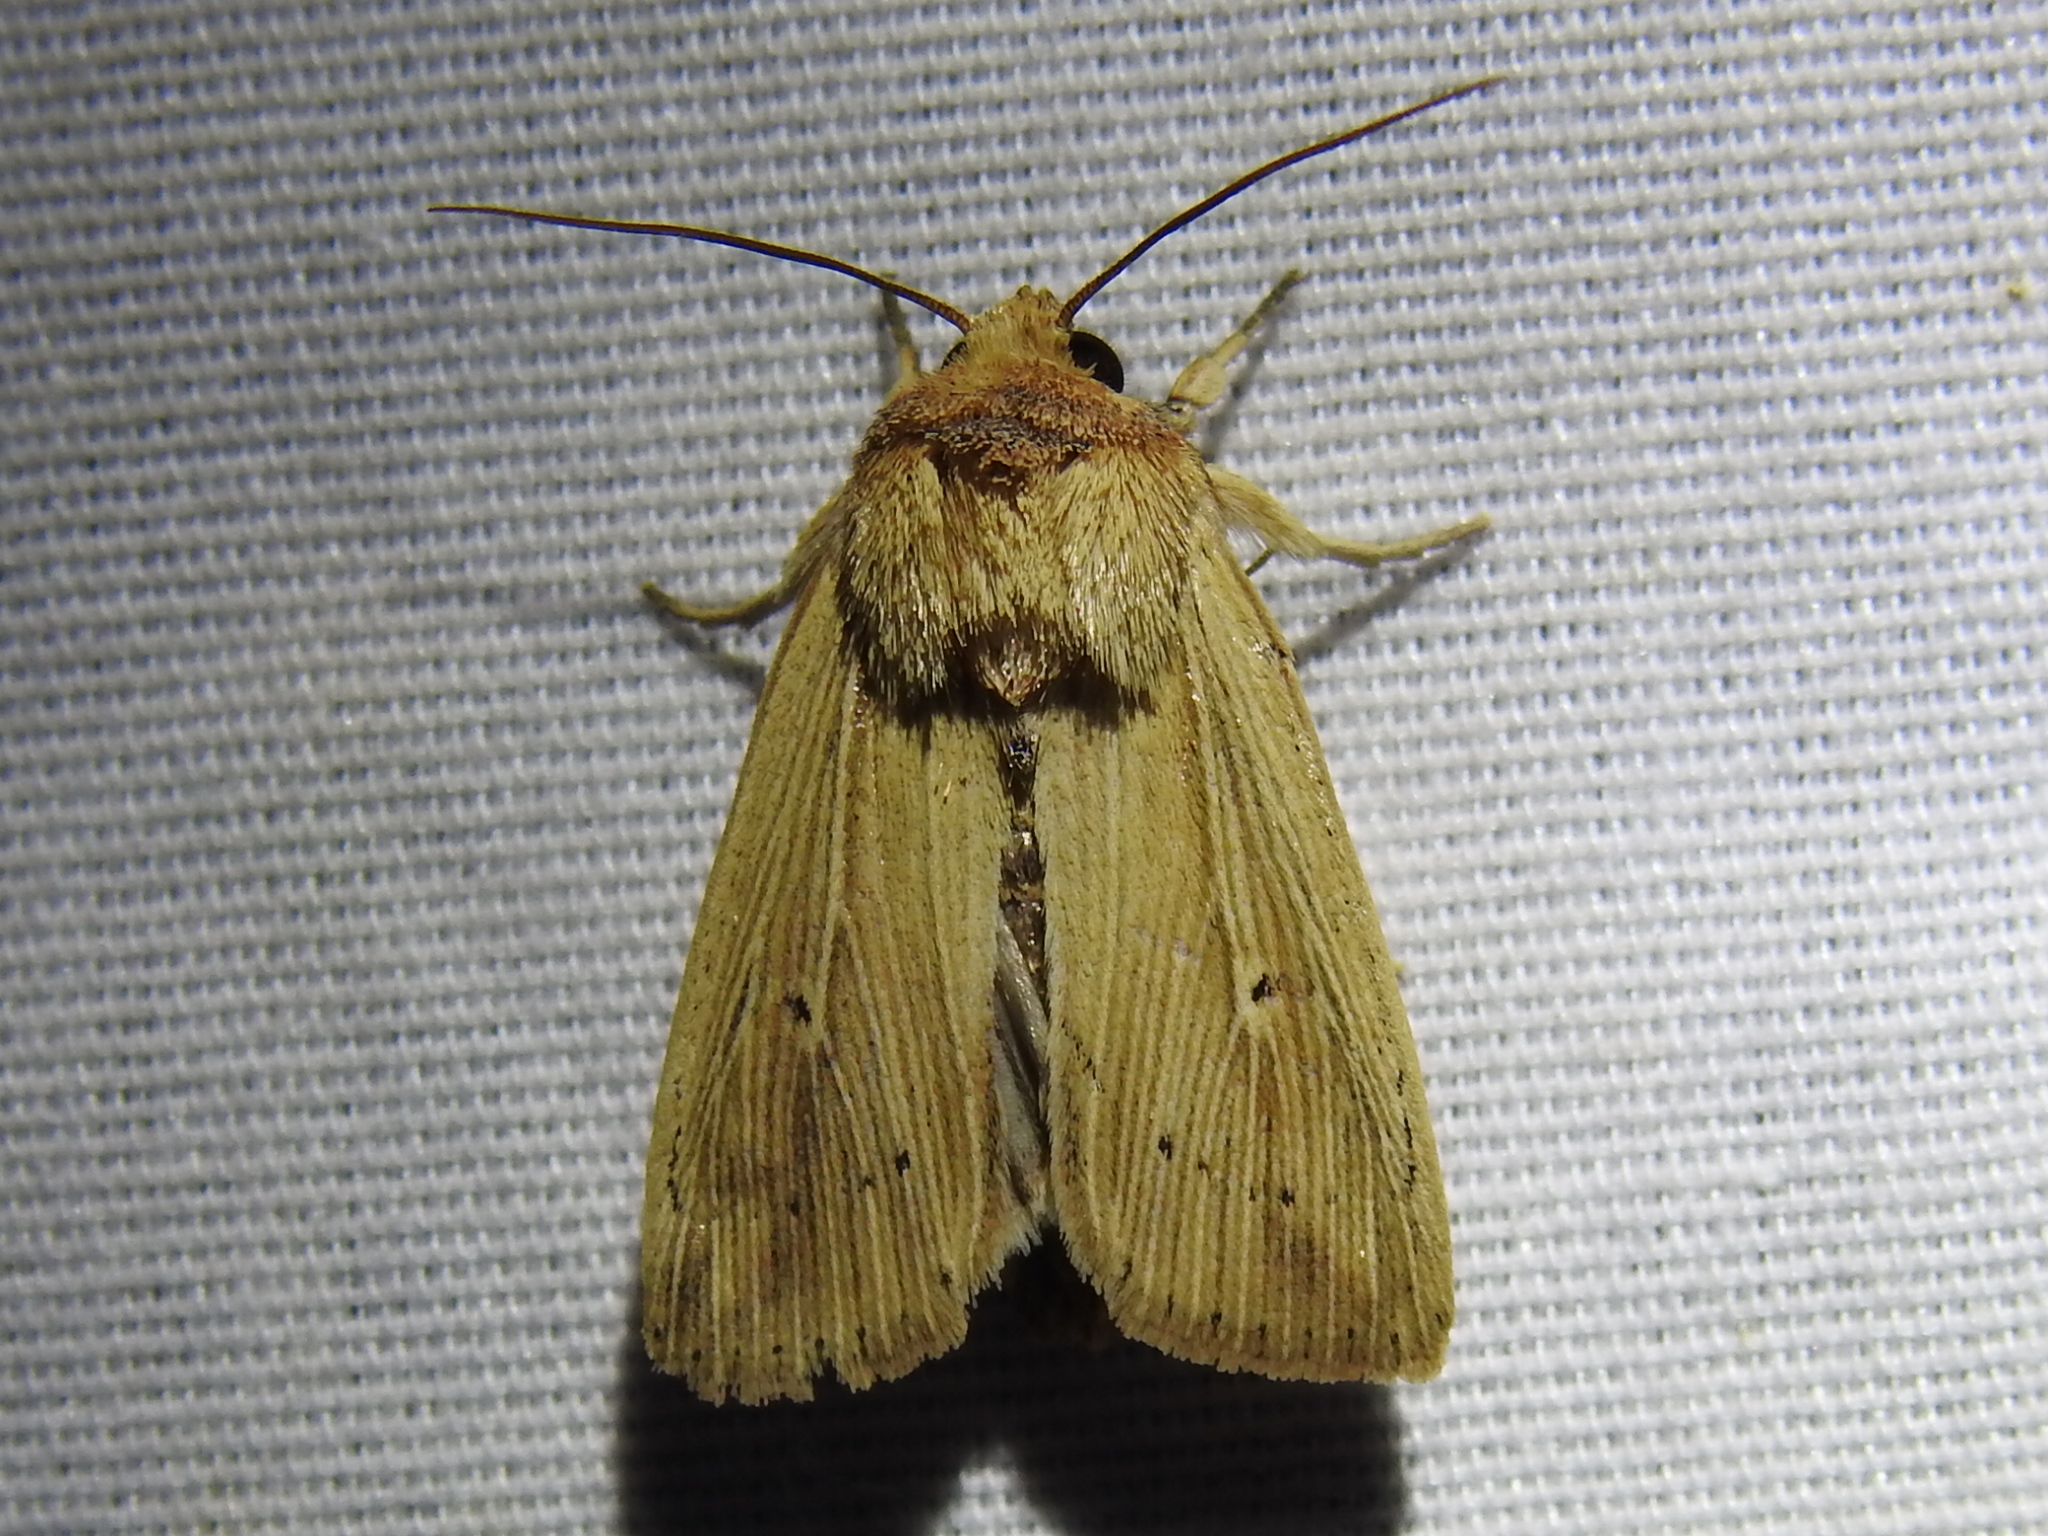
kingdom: Animalia
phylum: Arthropoda
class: Insecta
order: Lepidoptera
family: Noctuidae
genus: Leucania
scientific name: Leucania adjuta
